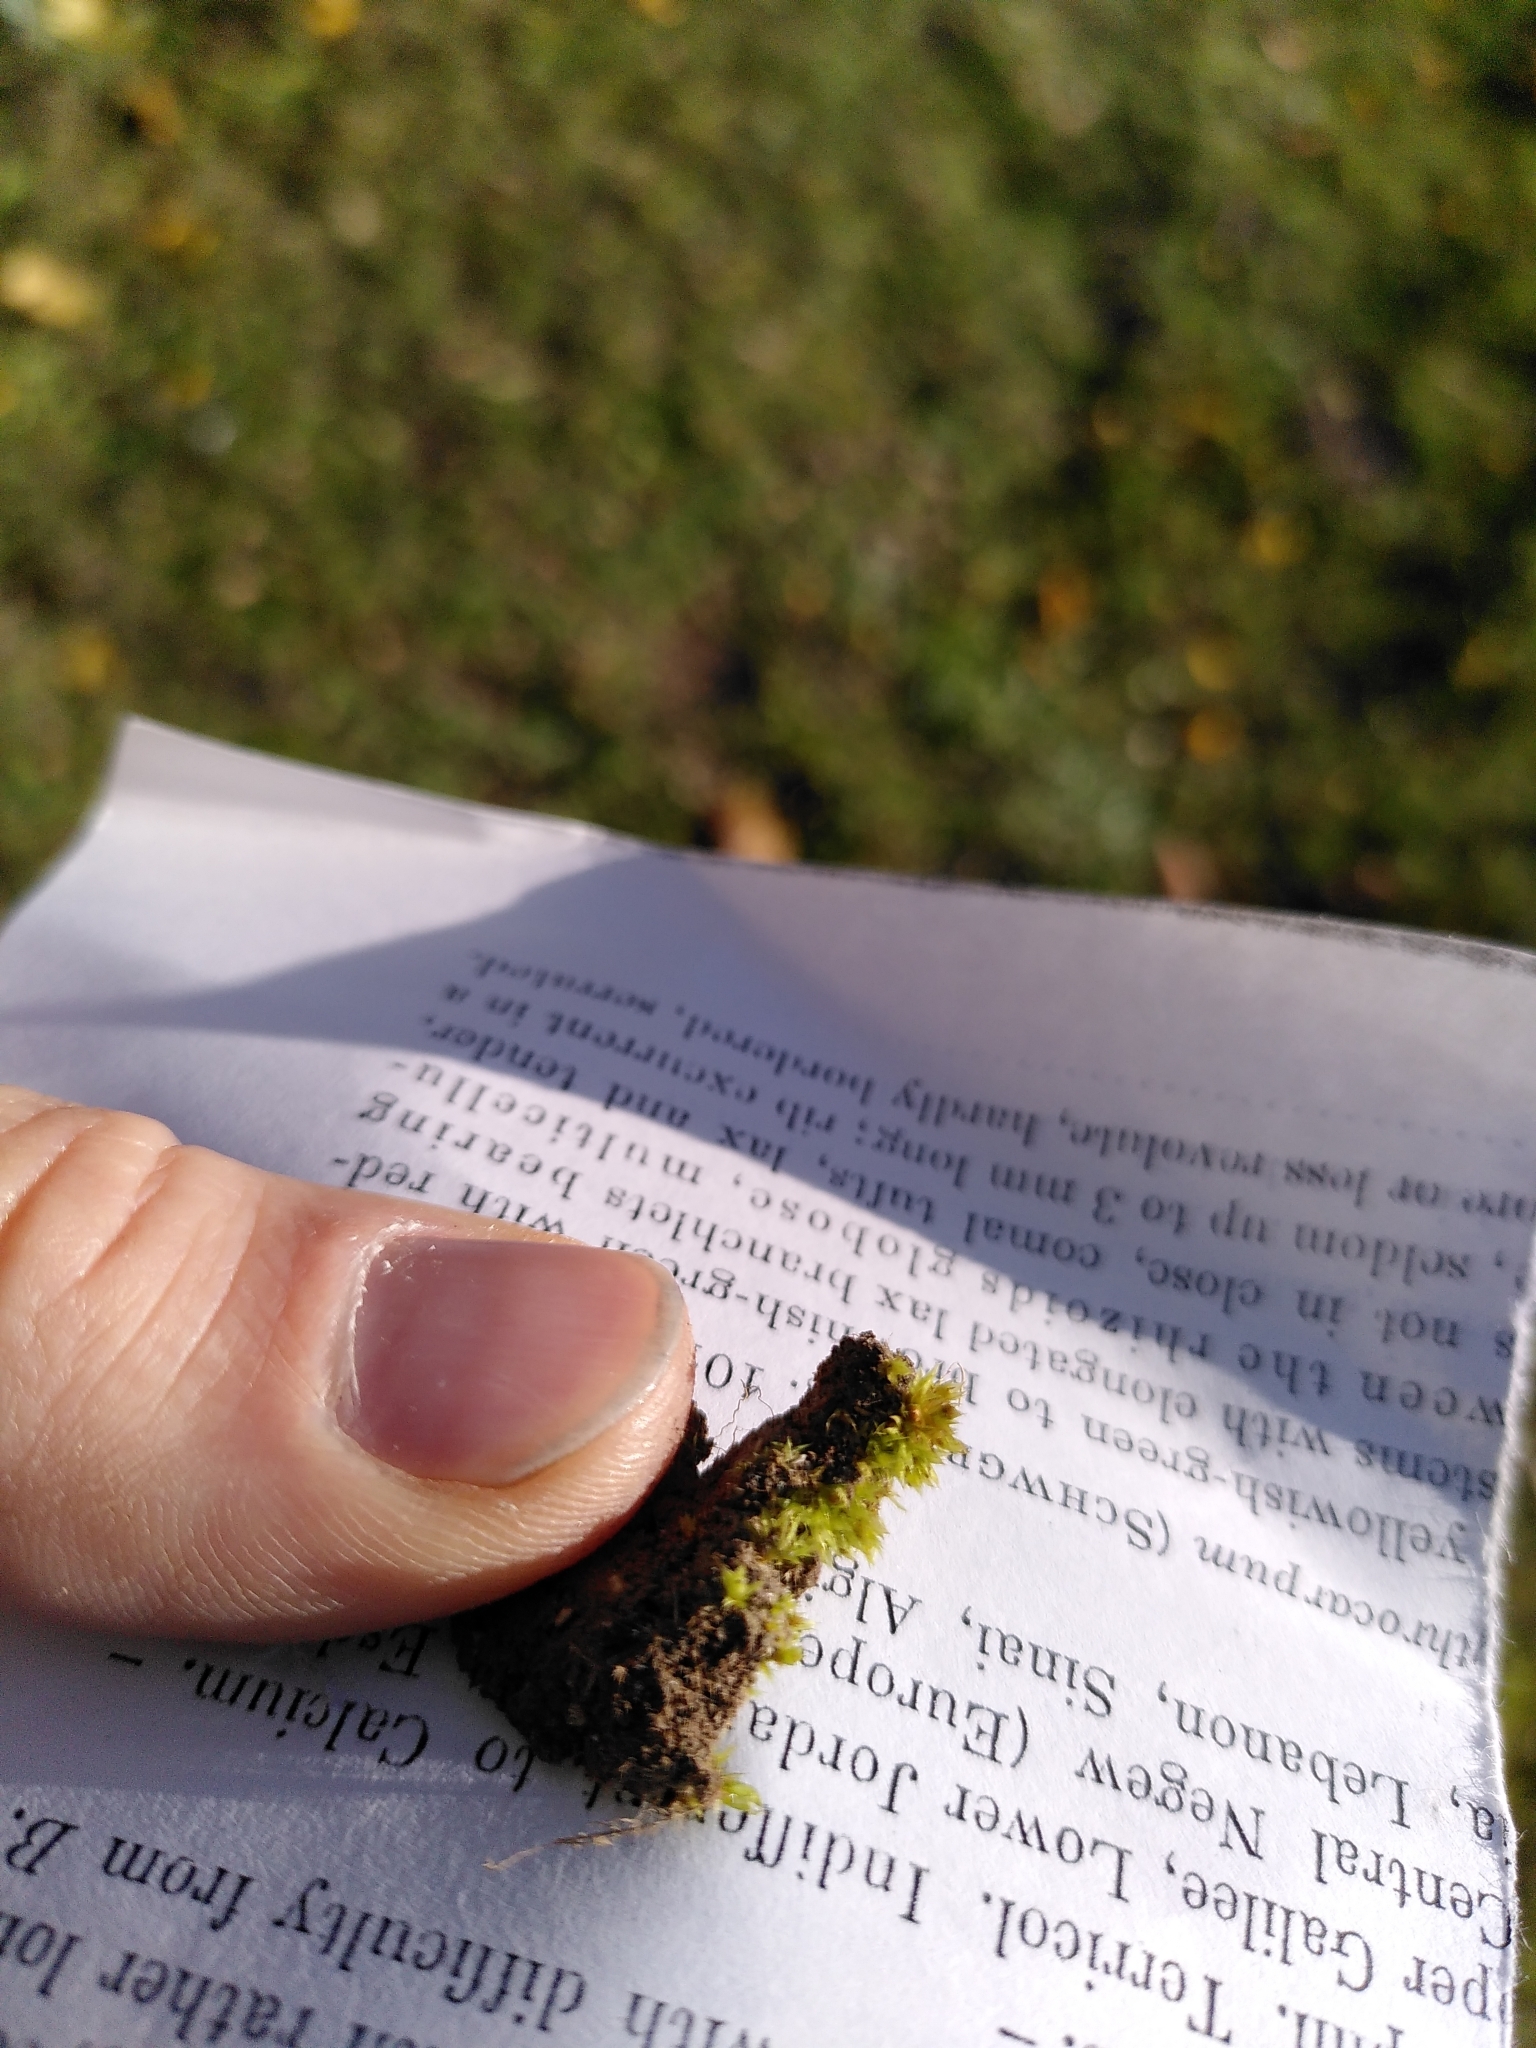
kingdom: Plantae
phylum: Bryophyta
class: Bryopsida
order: Pottiales
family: Pottiaceae
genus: Tortula
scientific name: Tortula acaulon
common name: Cuspidate earth moss
